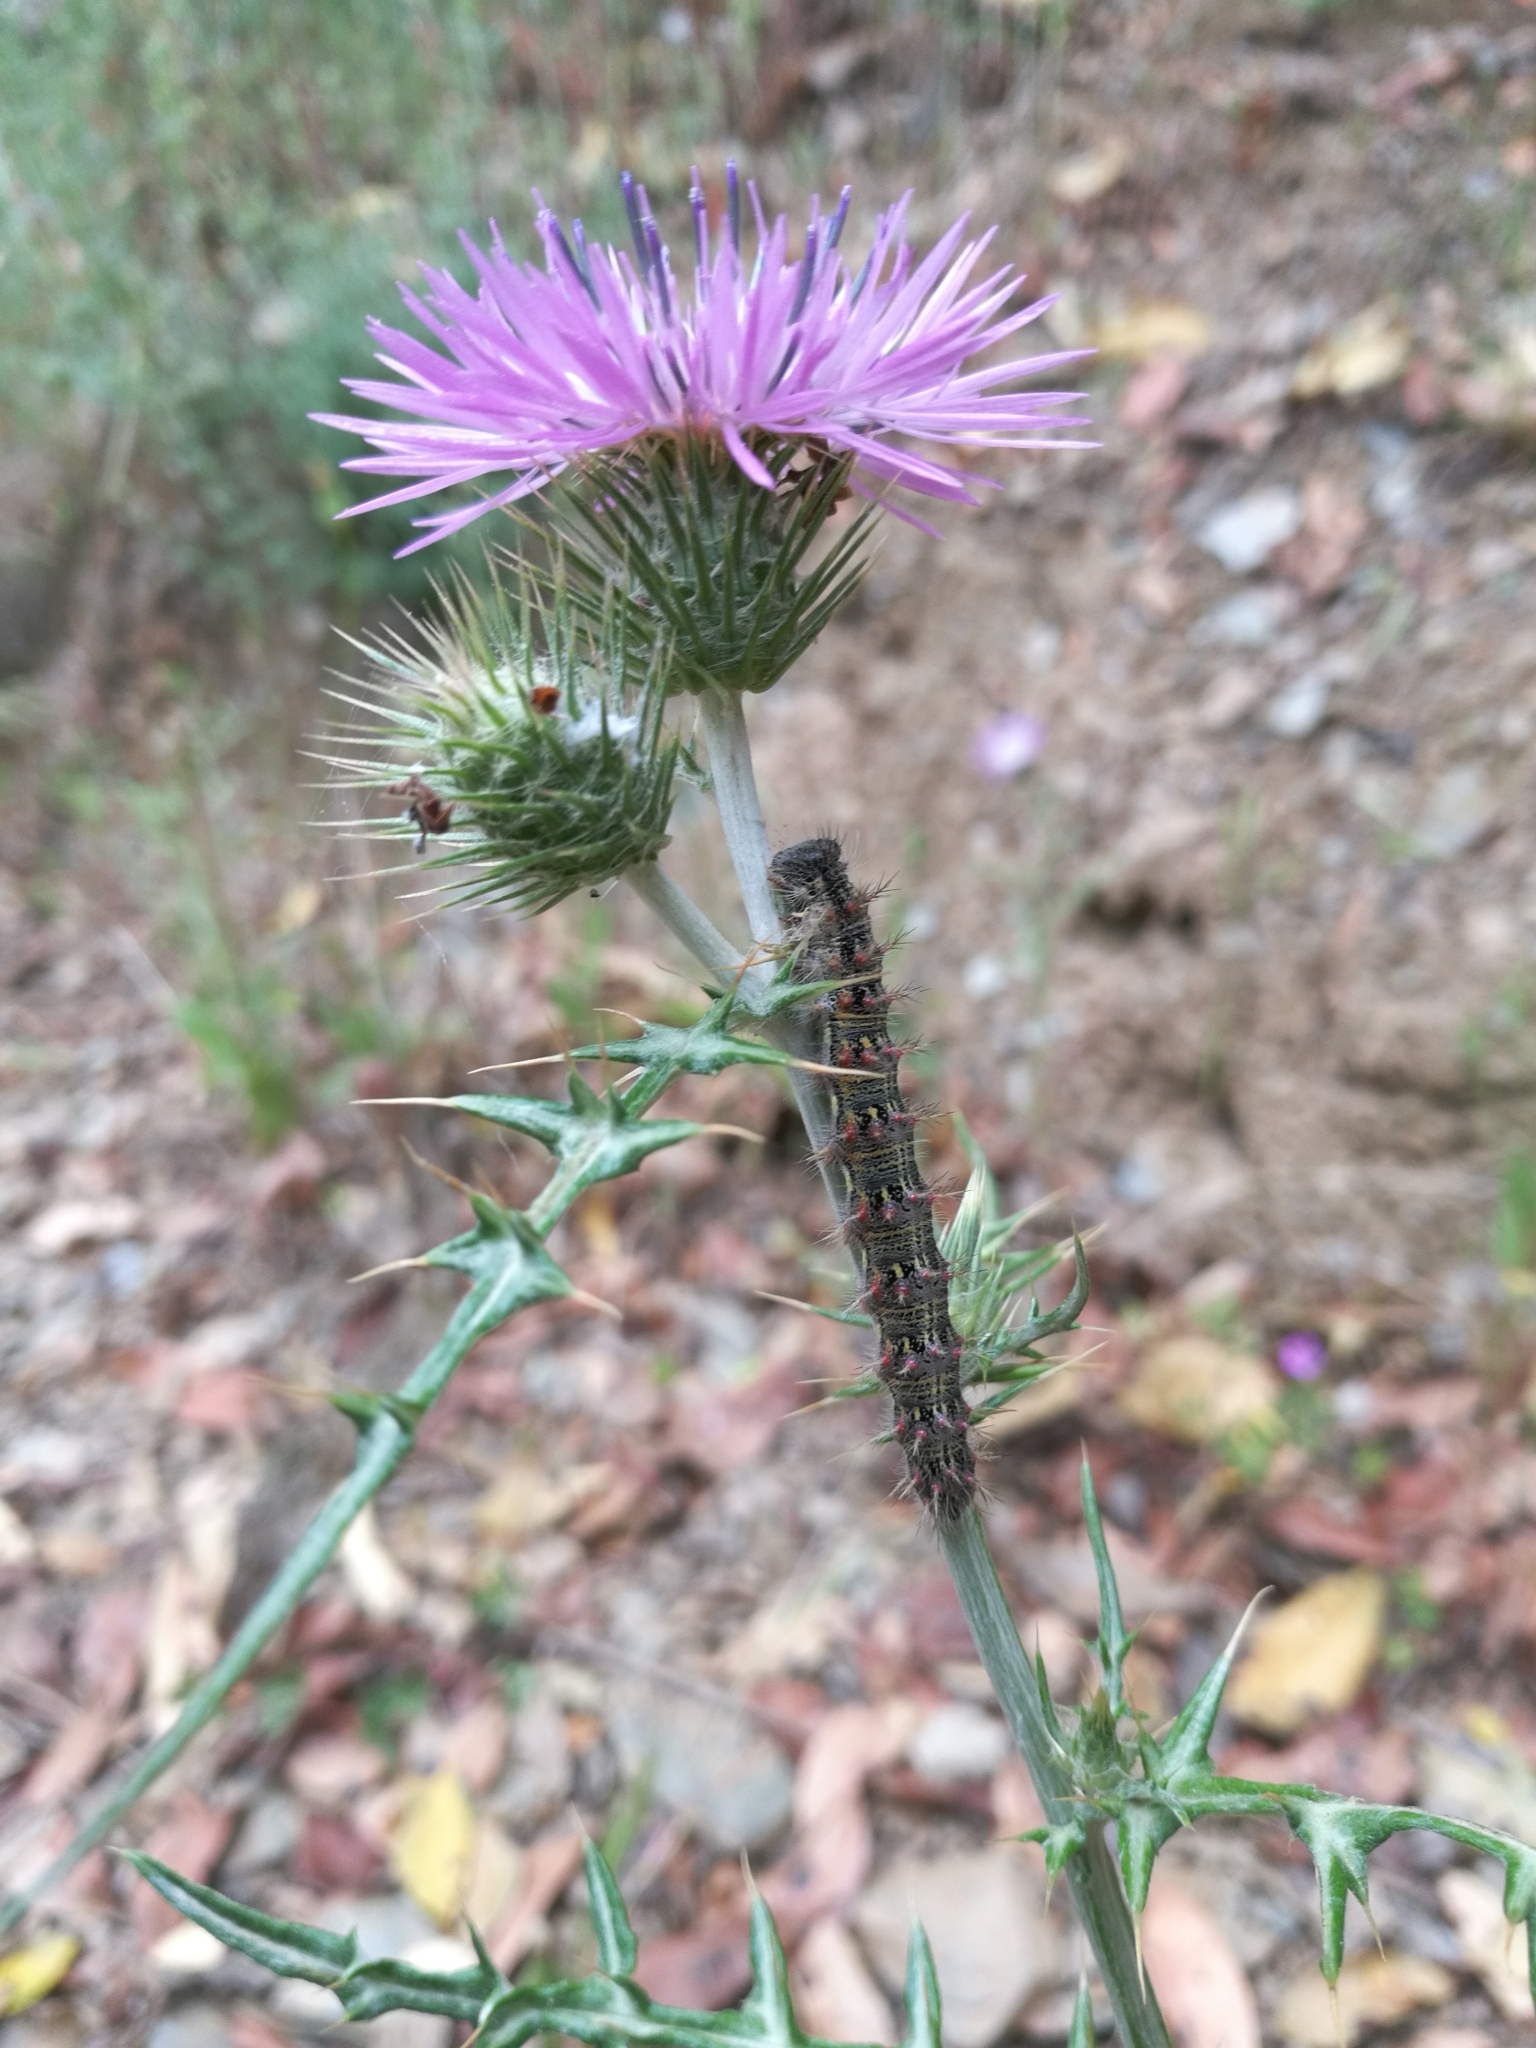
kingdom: Animalia
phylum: Arthropoda
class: Insecta
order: Lepidoptera
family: Nymphalidae
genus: Vanessa
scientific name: Vanessa cardui
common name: Painted lady
